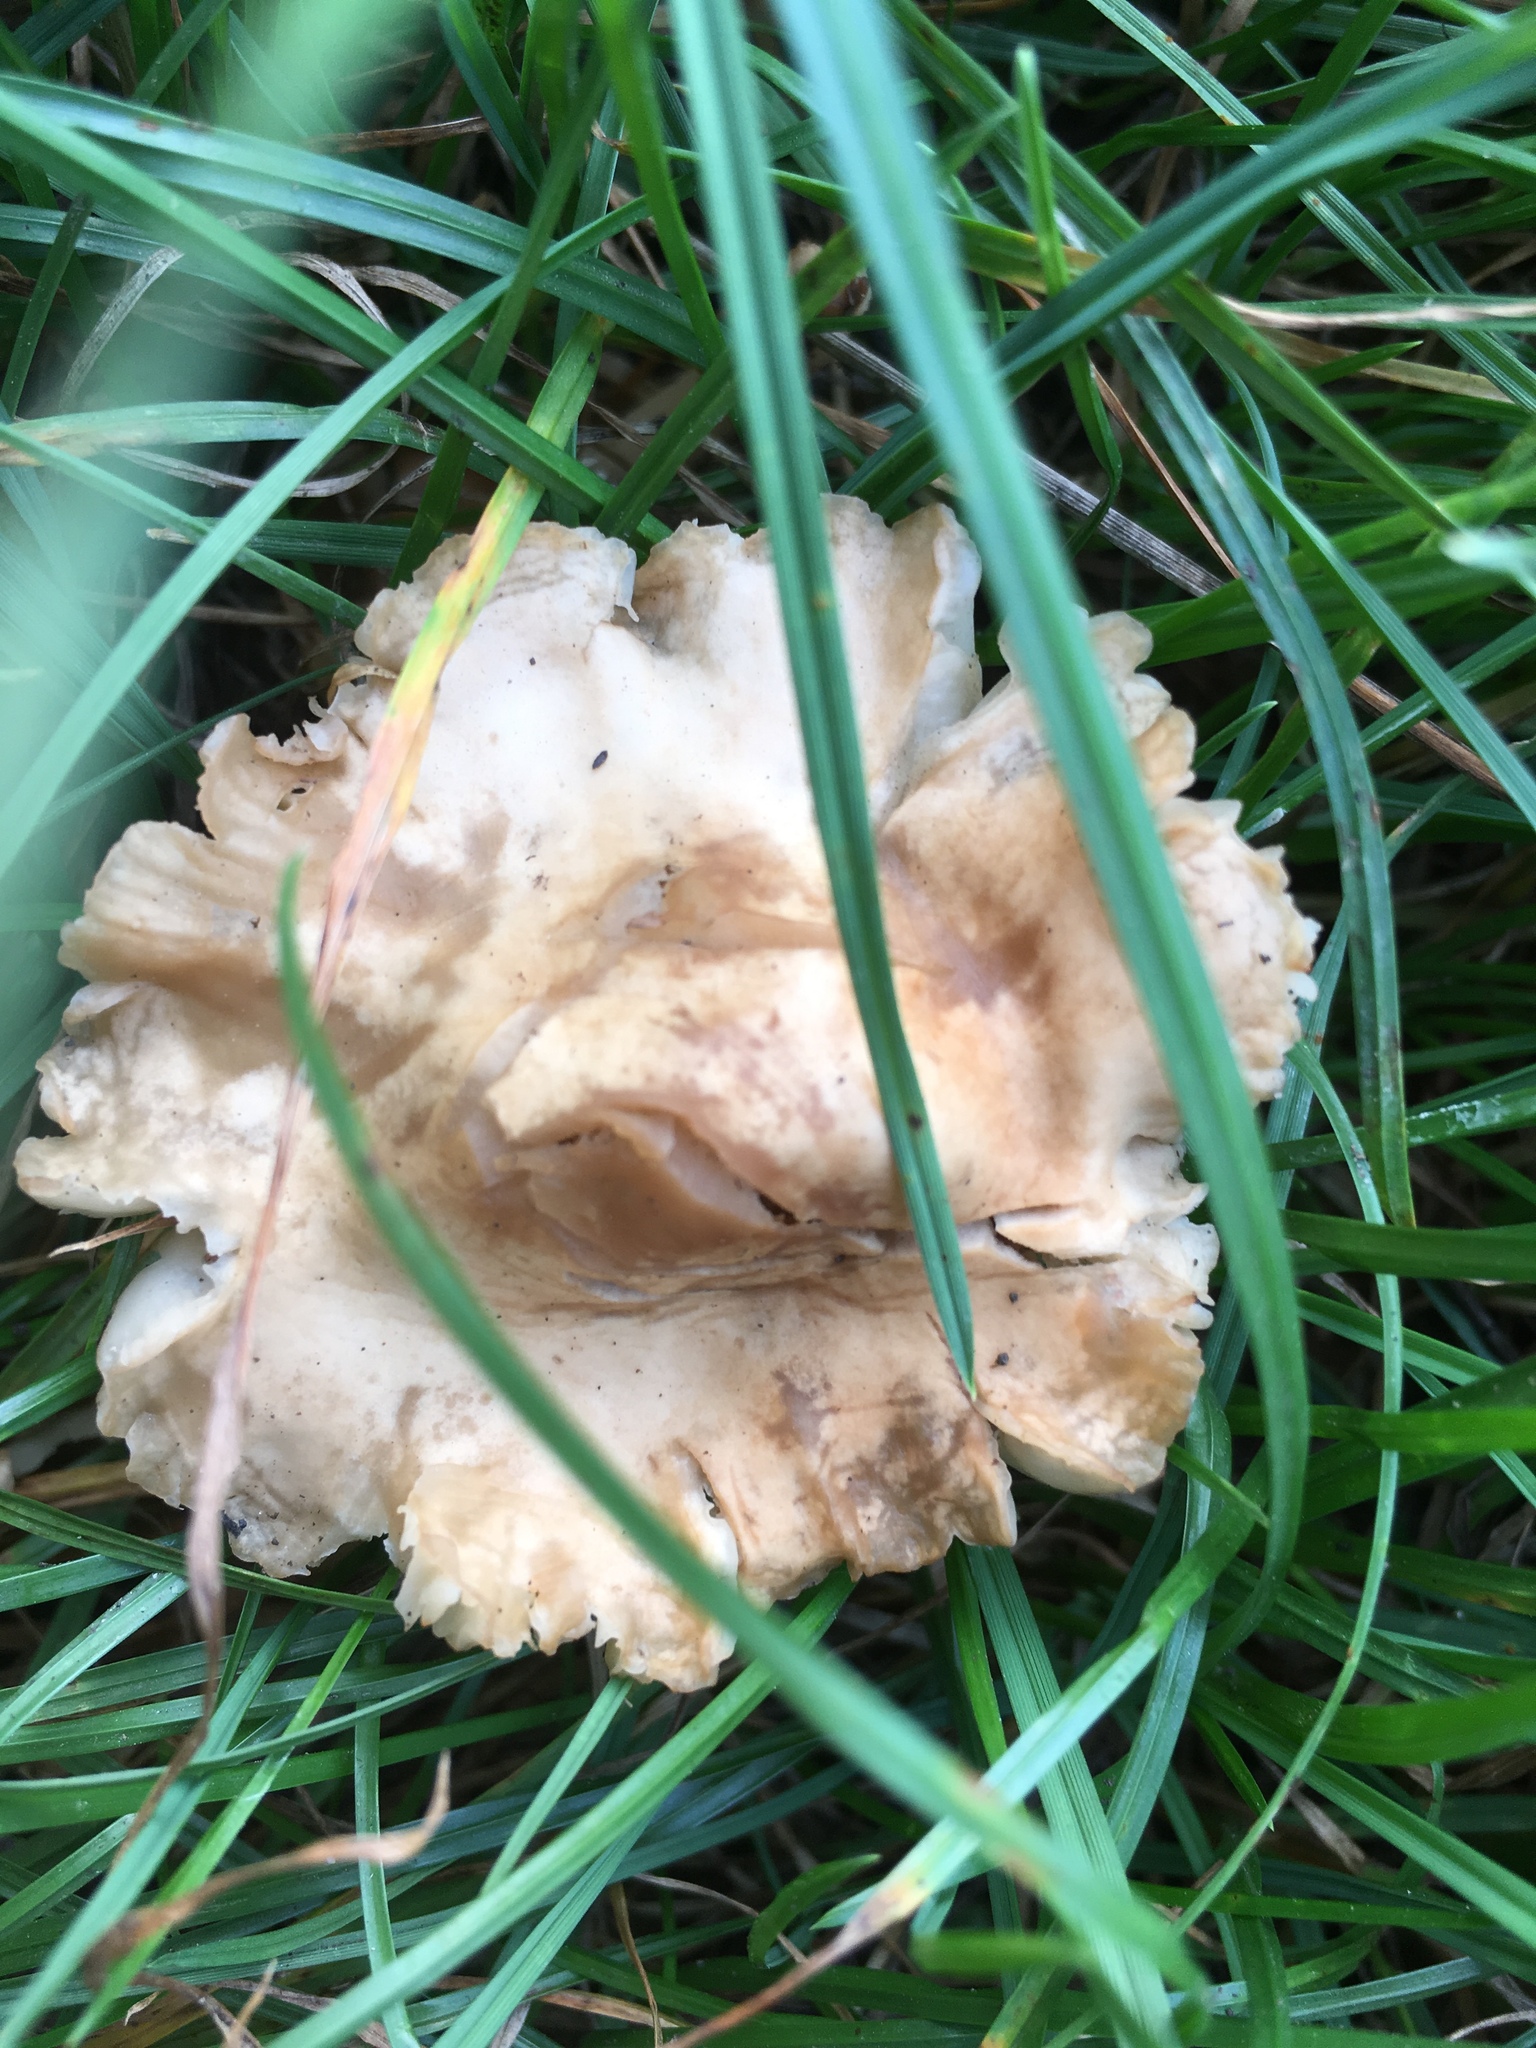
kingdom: Fungi
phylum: Basidiomycota
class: Agaricomycetes
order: Agaricales
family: Marasmiaceae
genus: Marasmius
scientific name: Marasmius oreades
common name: Fairy ring champignon
